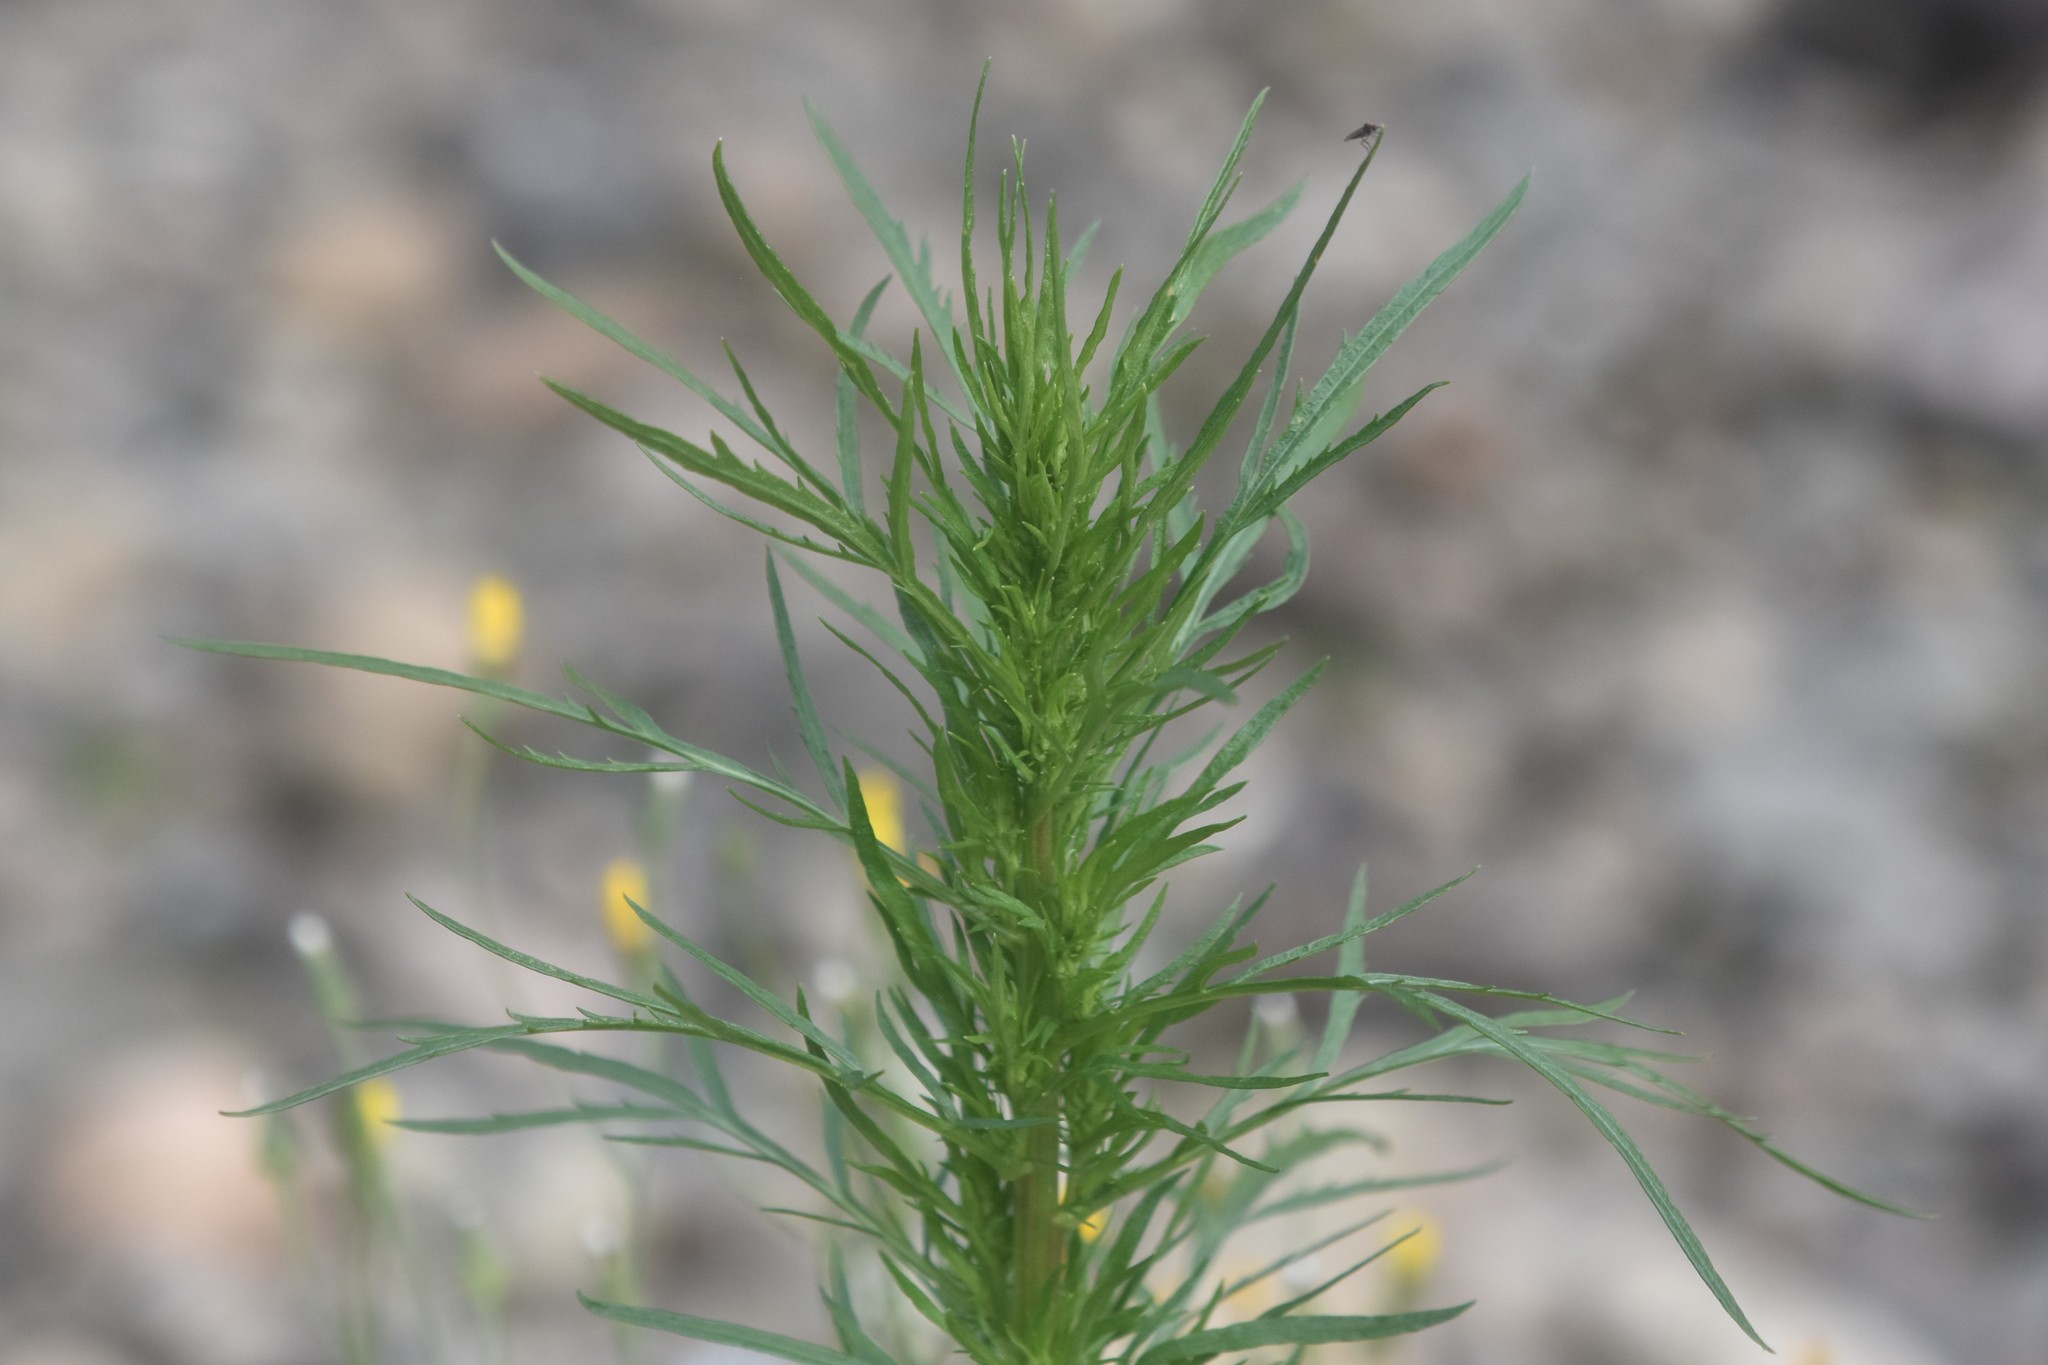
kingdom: Plantae
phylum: Tracheophyta
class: Magnoliopsida
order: Asterales
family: Asteraceae
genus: Artemisia
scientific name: Artemisia biennis
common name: Biennial wormwood
